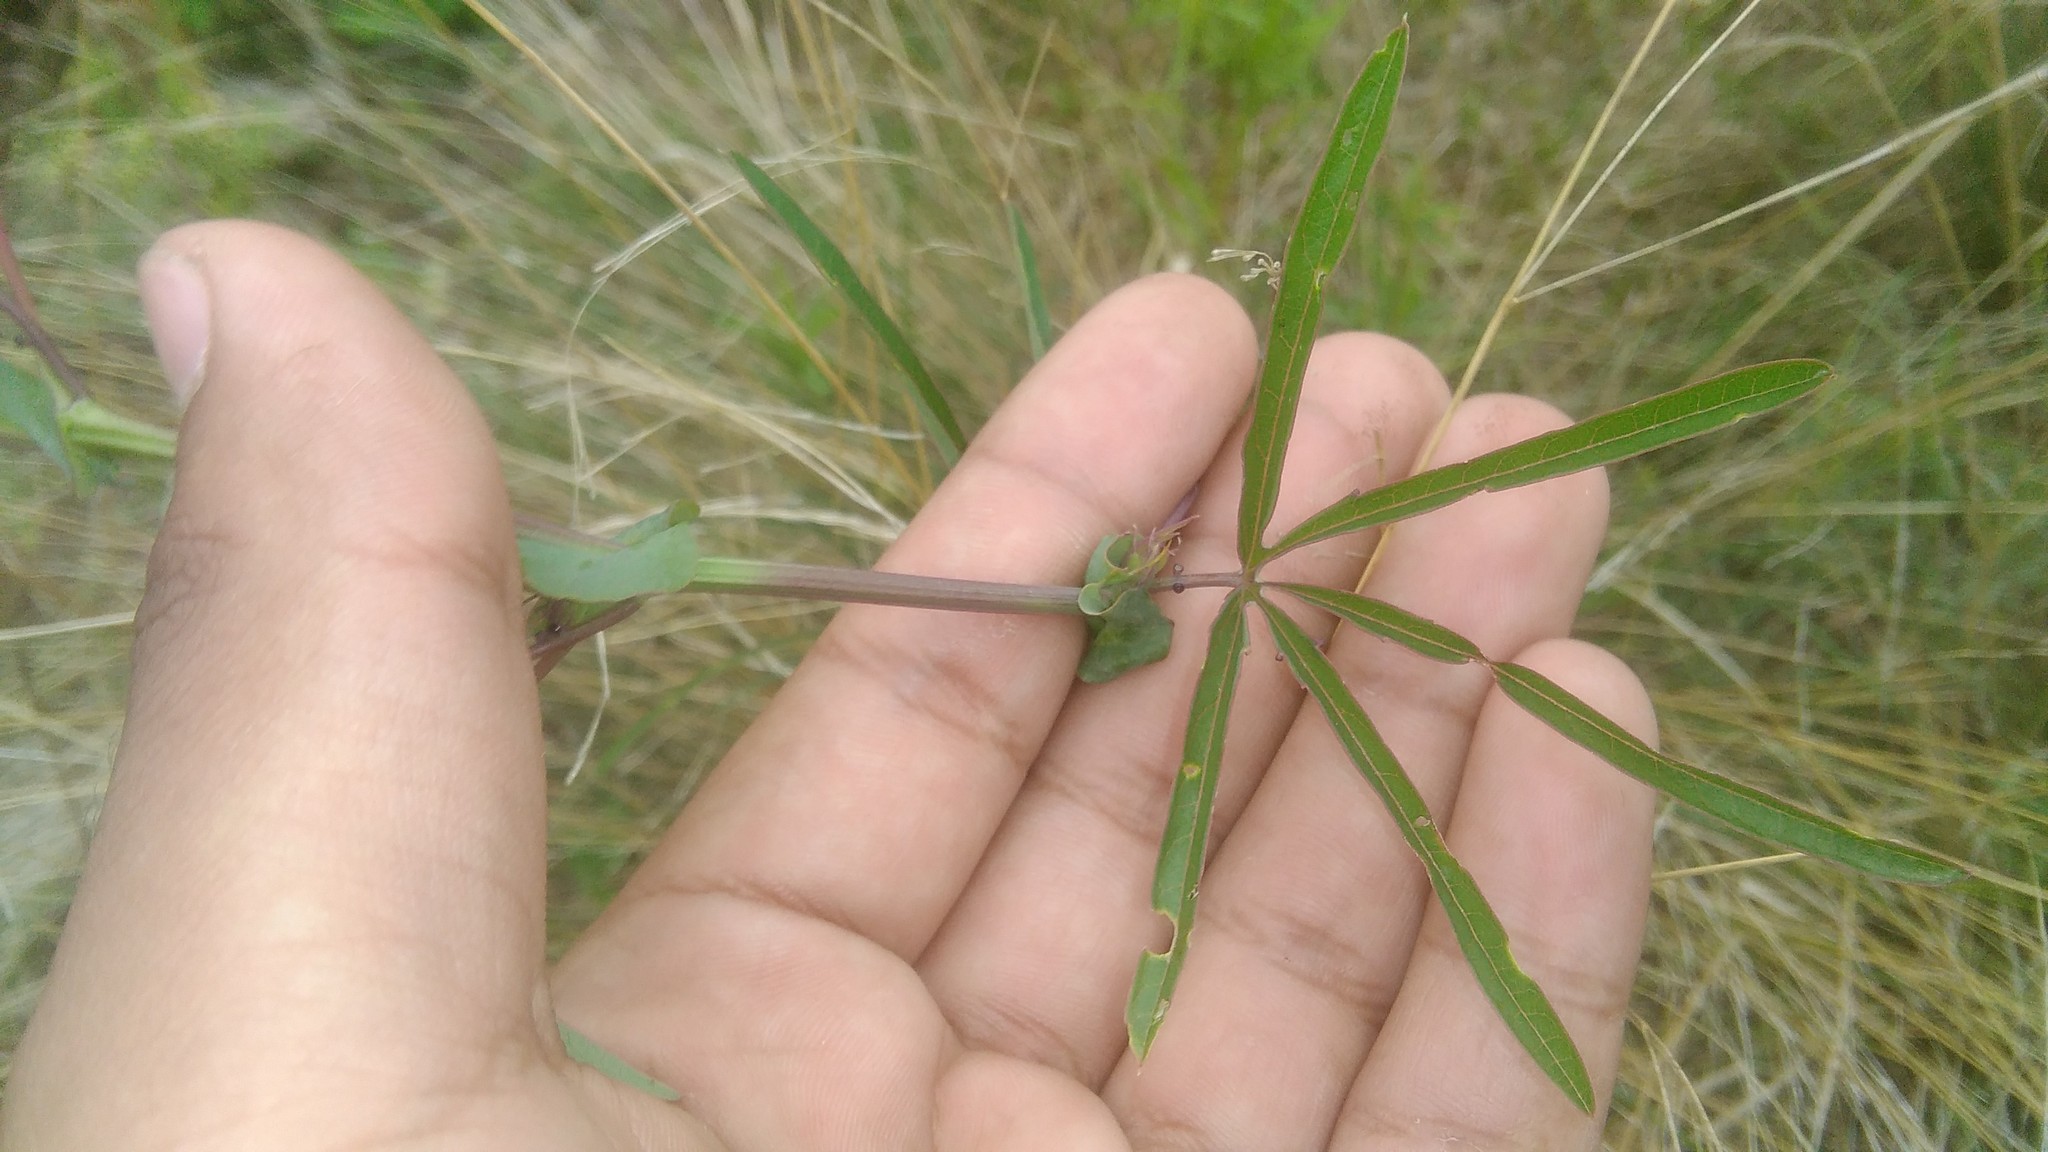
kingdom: Plantae
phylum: Tracheophyta
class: Magnoliopsida
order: Malpighiales
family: Passifloraceae
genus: Passiflora
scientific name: Passiflora caerulea
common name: Blue passionflower
